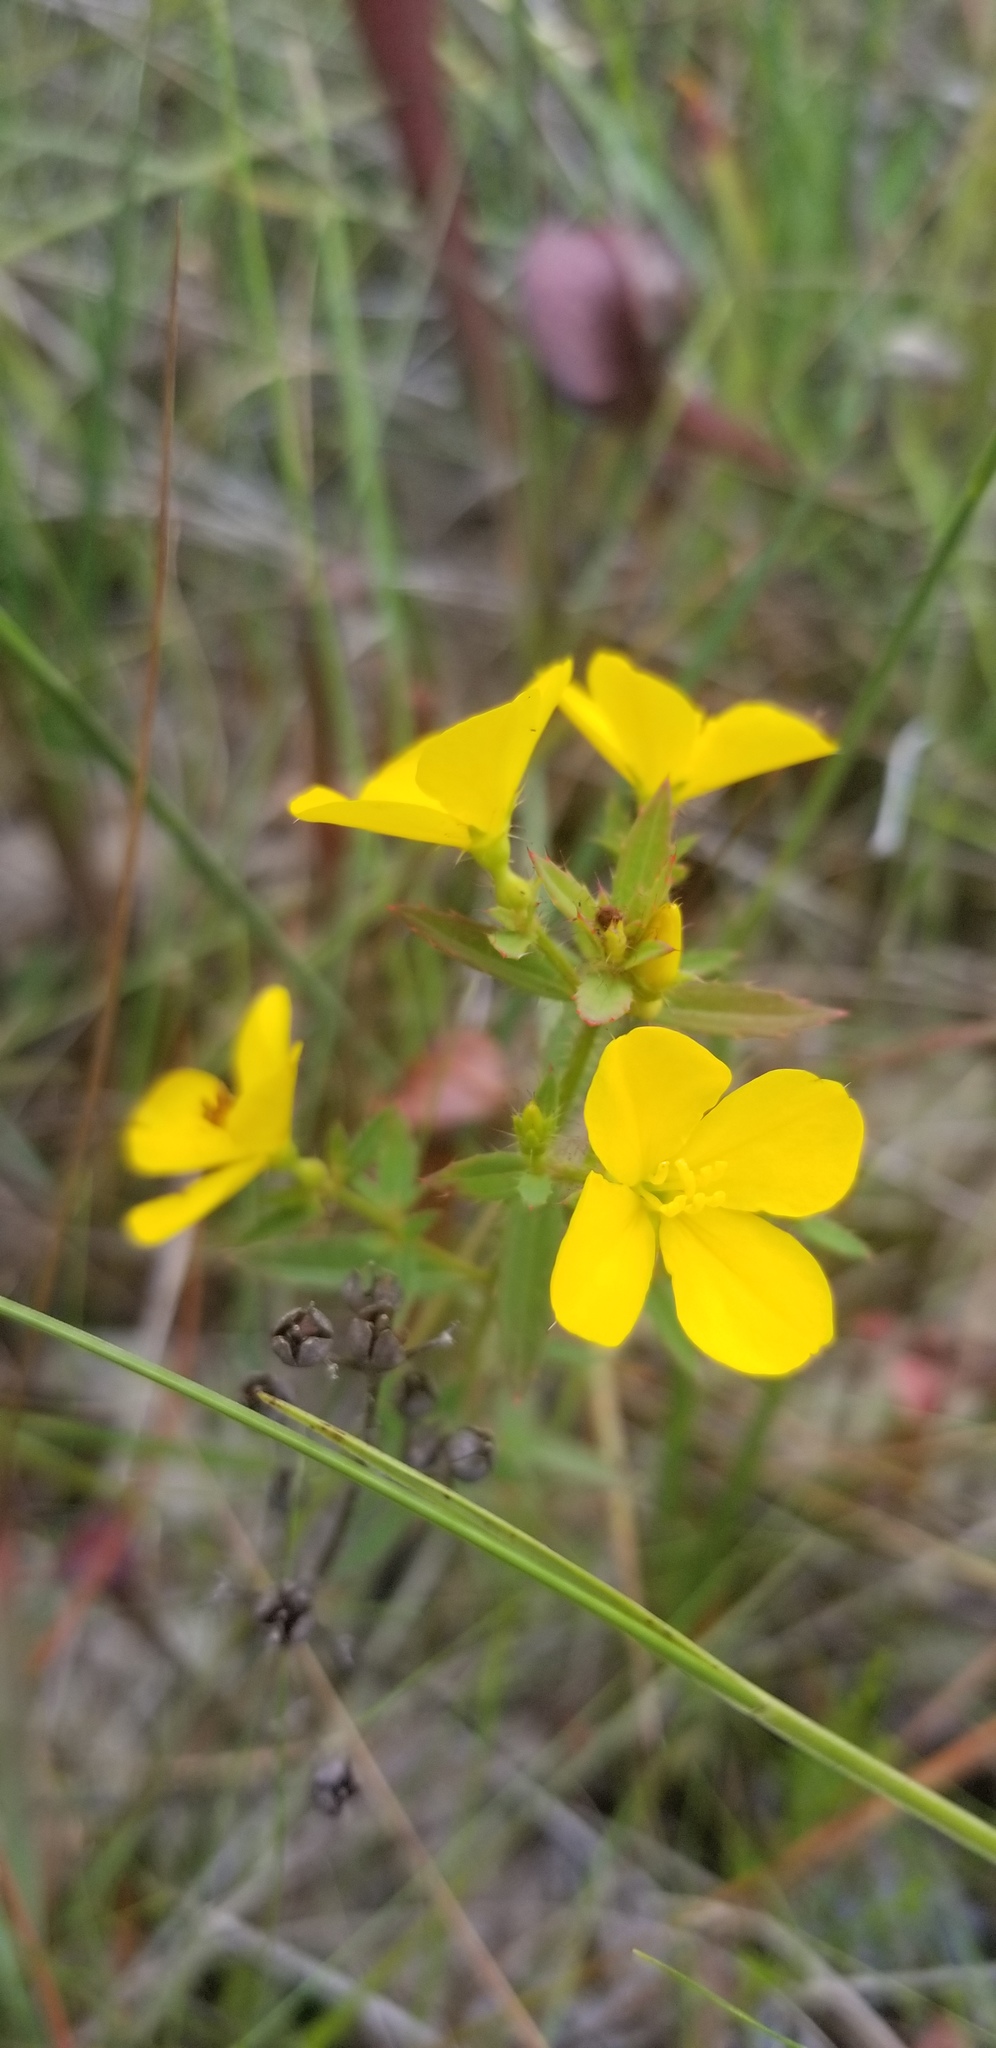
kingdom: Plantae
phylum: Tracheophyta
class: Magnoliopsida
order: Myrtales
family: Melastomataceae
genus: Rhexia
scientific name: Rhexia lutea
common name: Golden meadow-beauty
